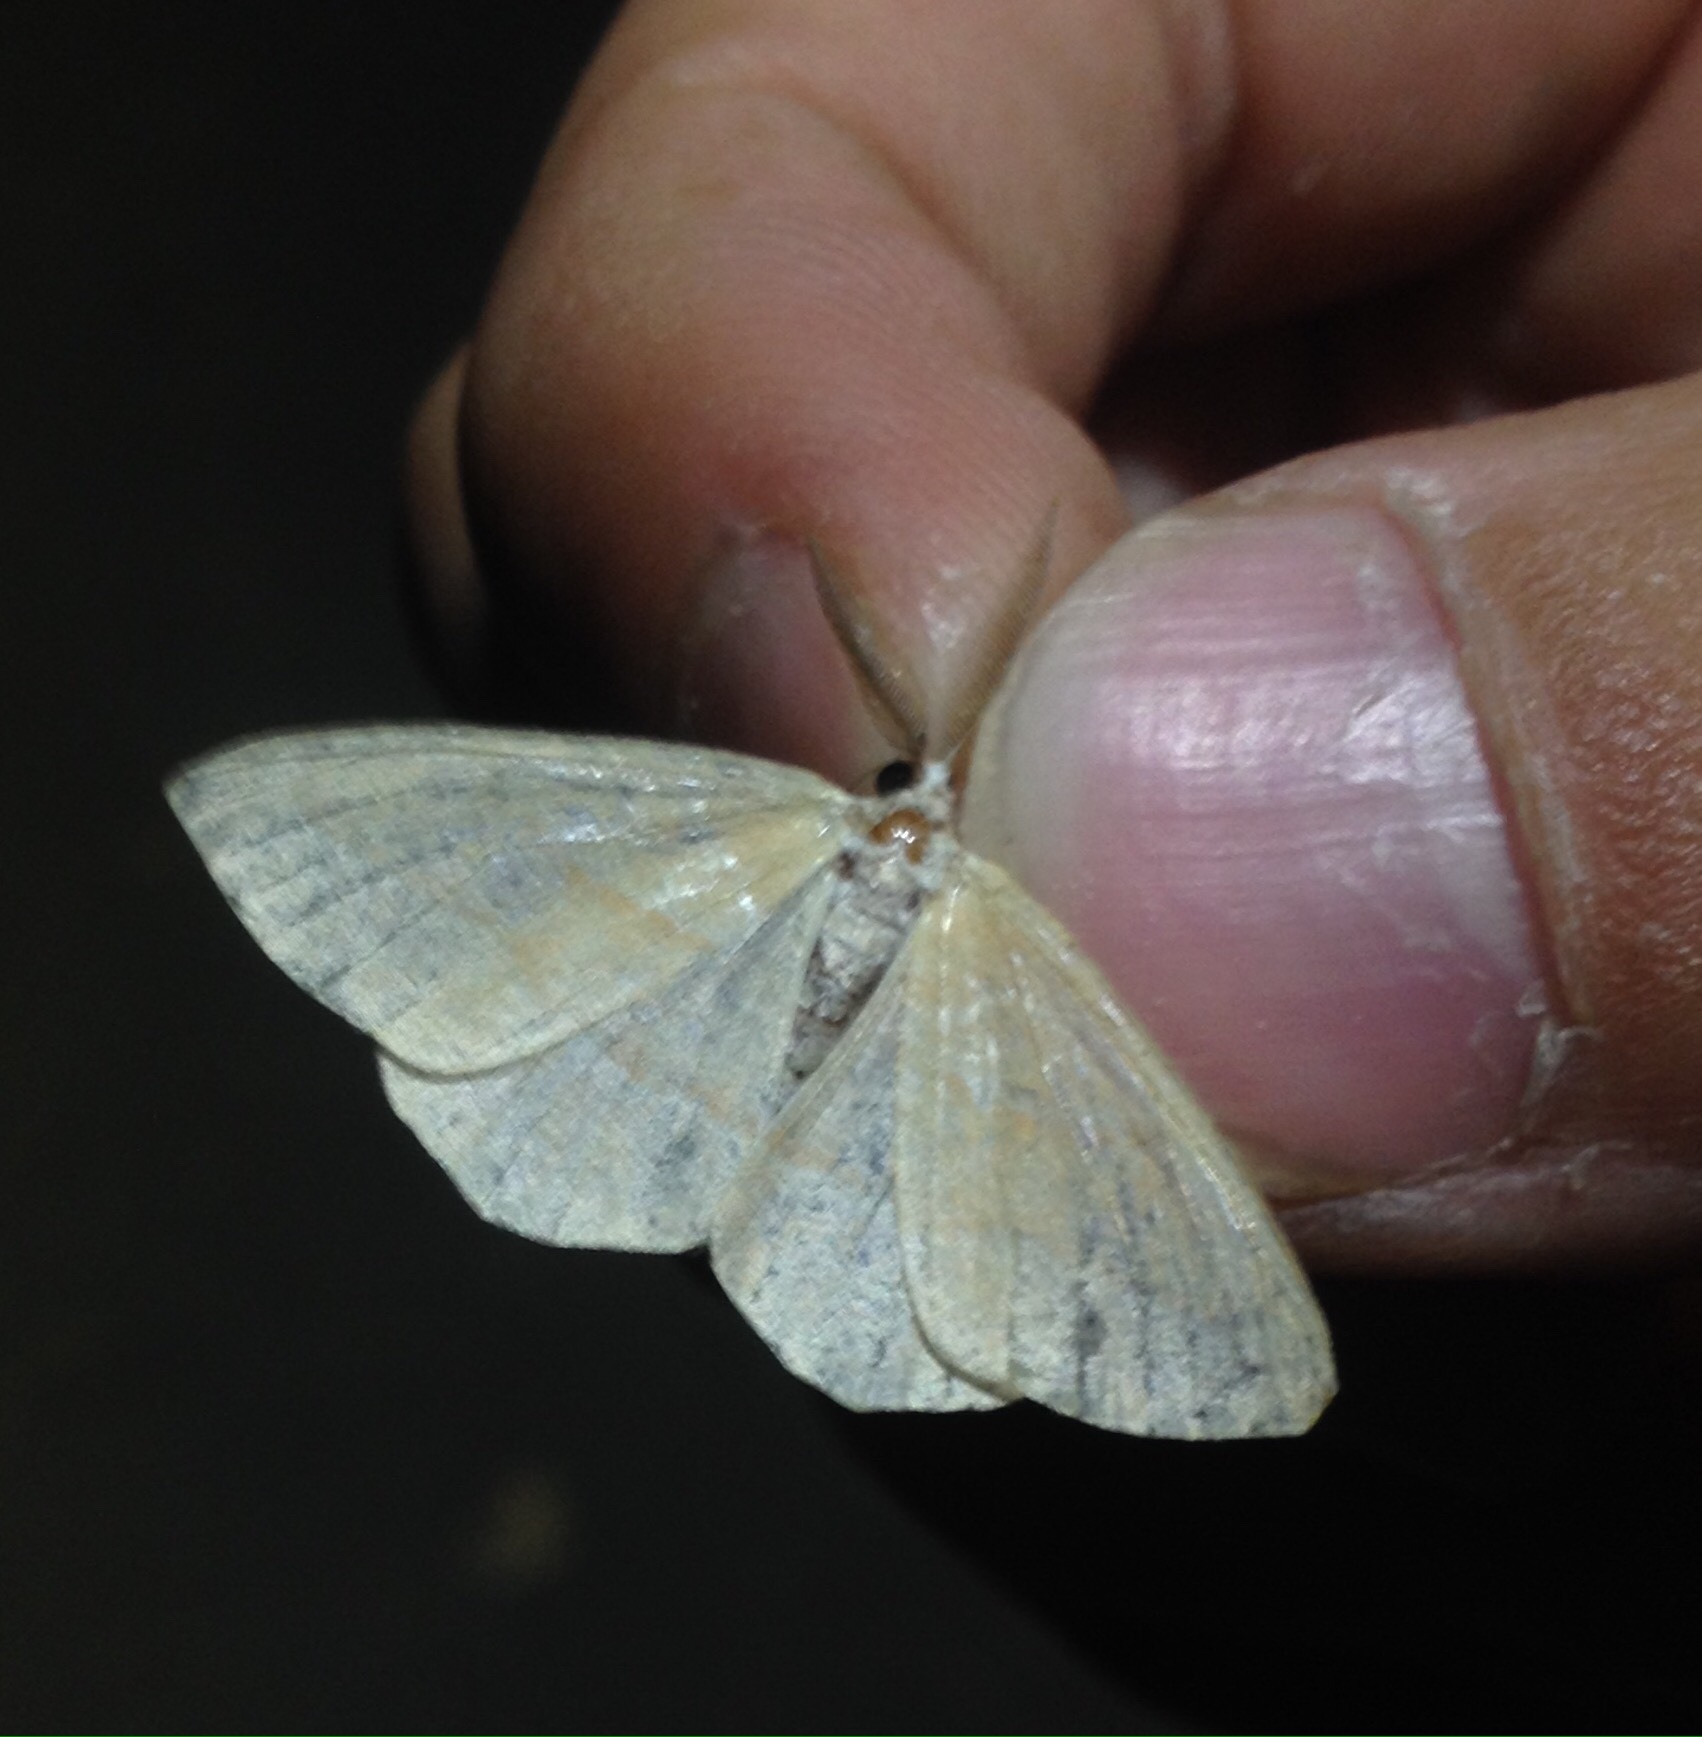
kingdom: Animalia
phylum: Arthropoda
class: Insecta
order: Lepidoptera
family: Geometridae
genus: Hylaea
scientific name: Hylaea fasciaria
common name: Barred red
